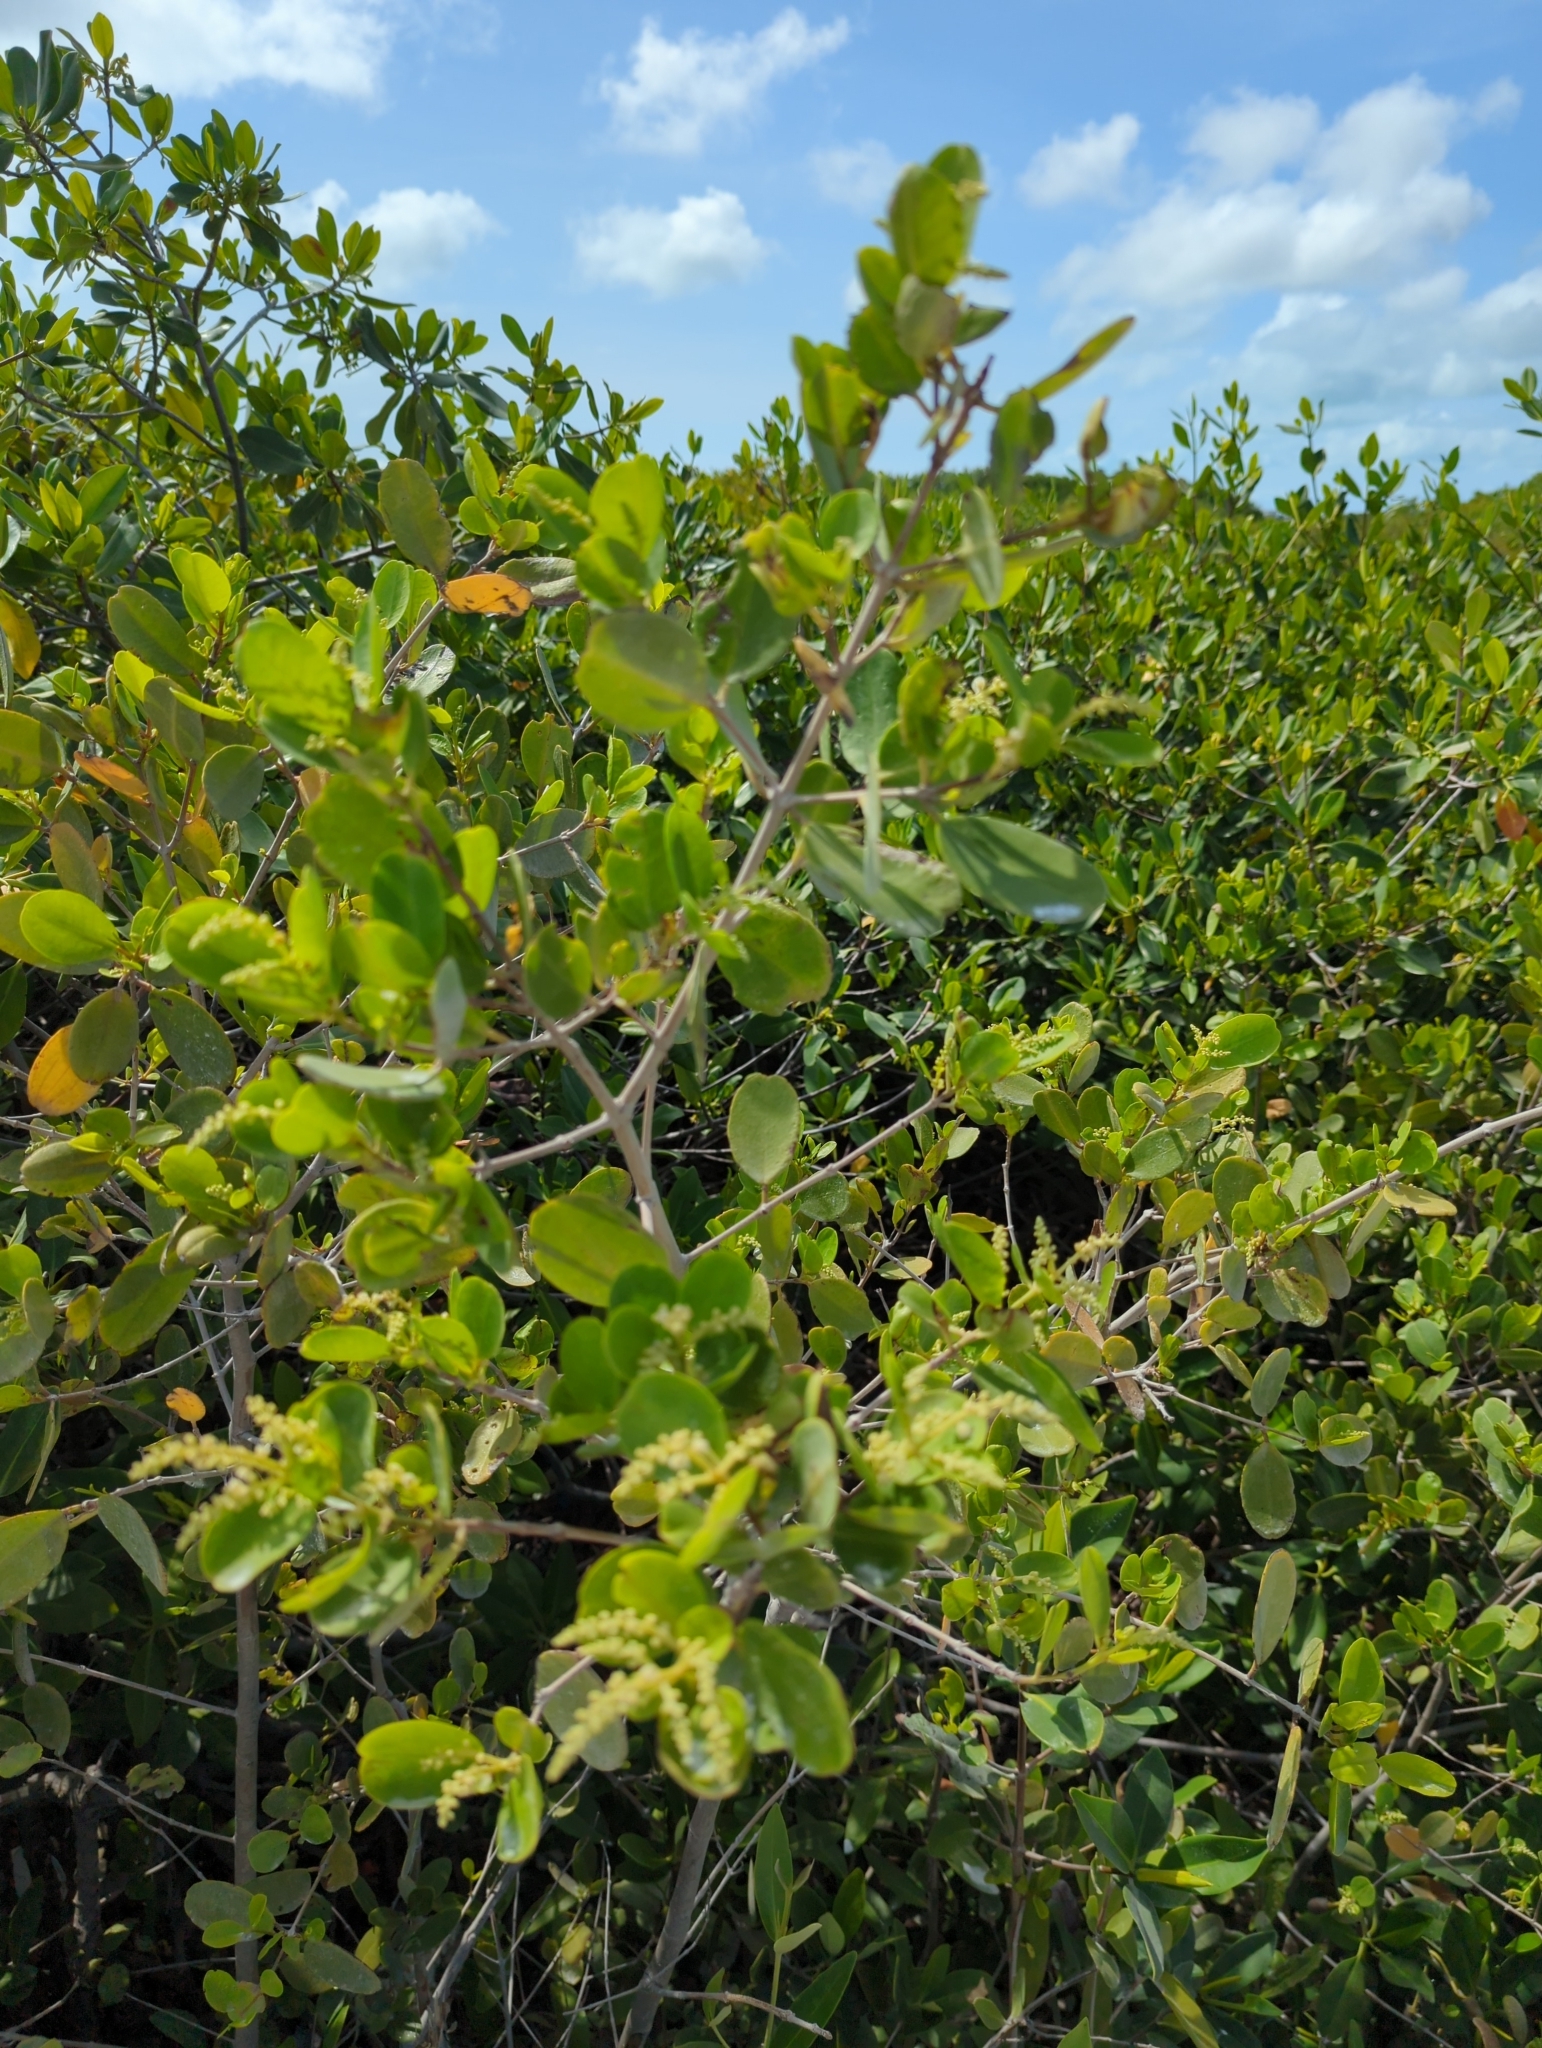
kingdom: Plantae
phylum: Tracheophyta
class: Magnoliopsida
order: Myrtales
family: Combretaceae
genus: Laguncularia
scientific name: Laguncularia racemosa
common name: White mangrove
